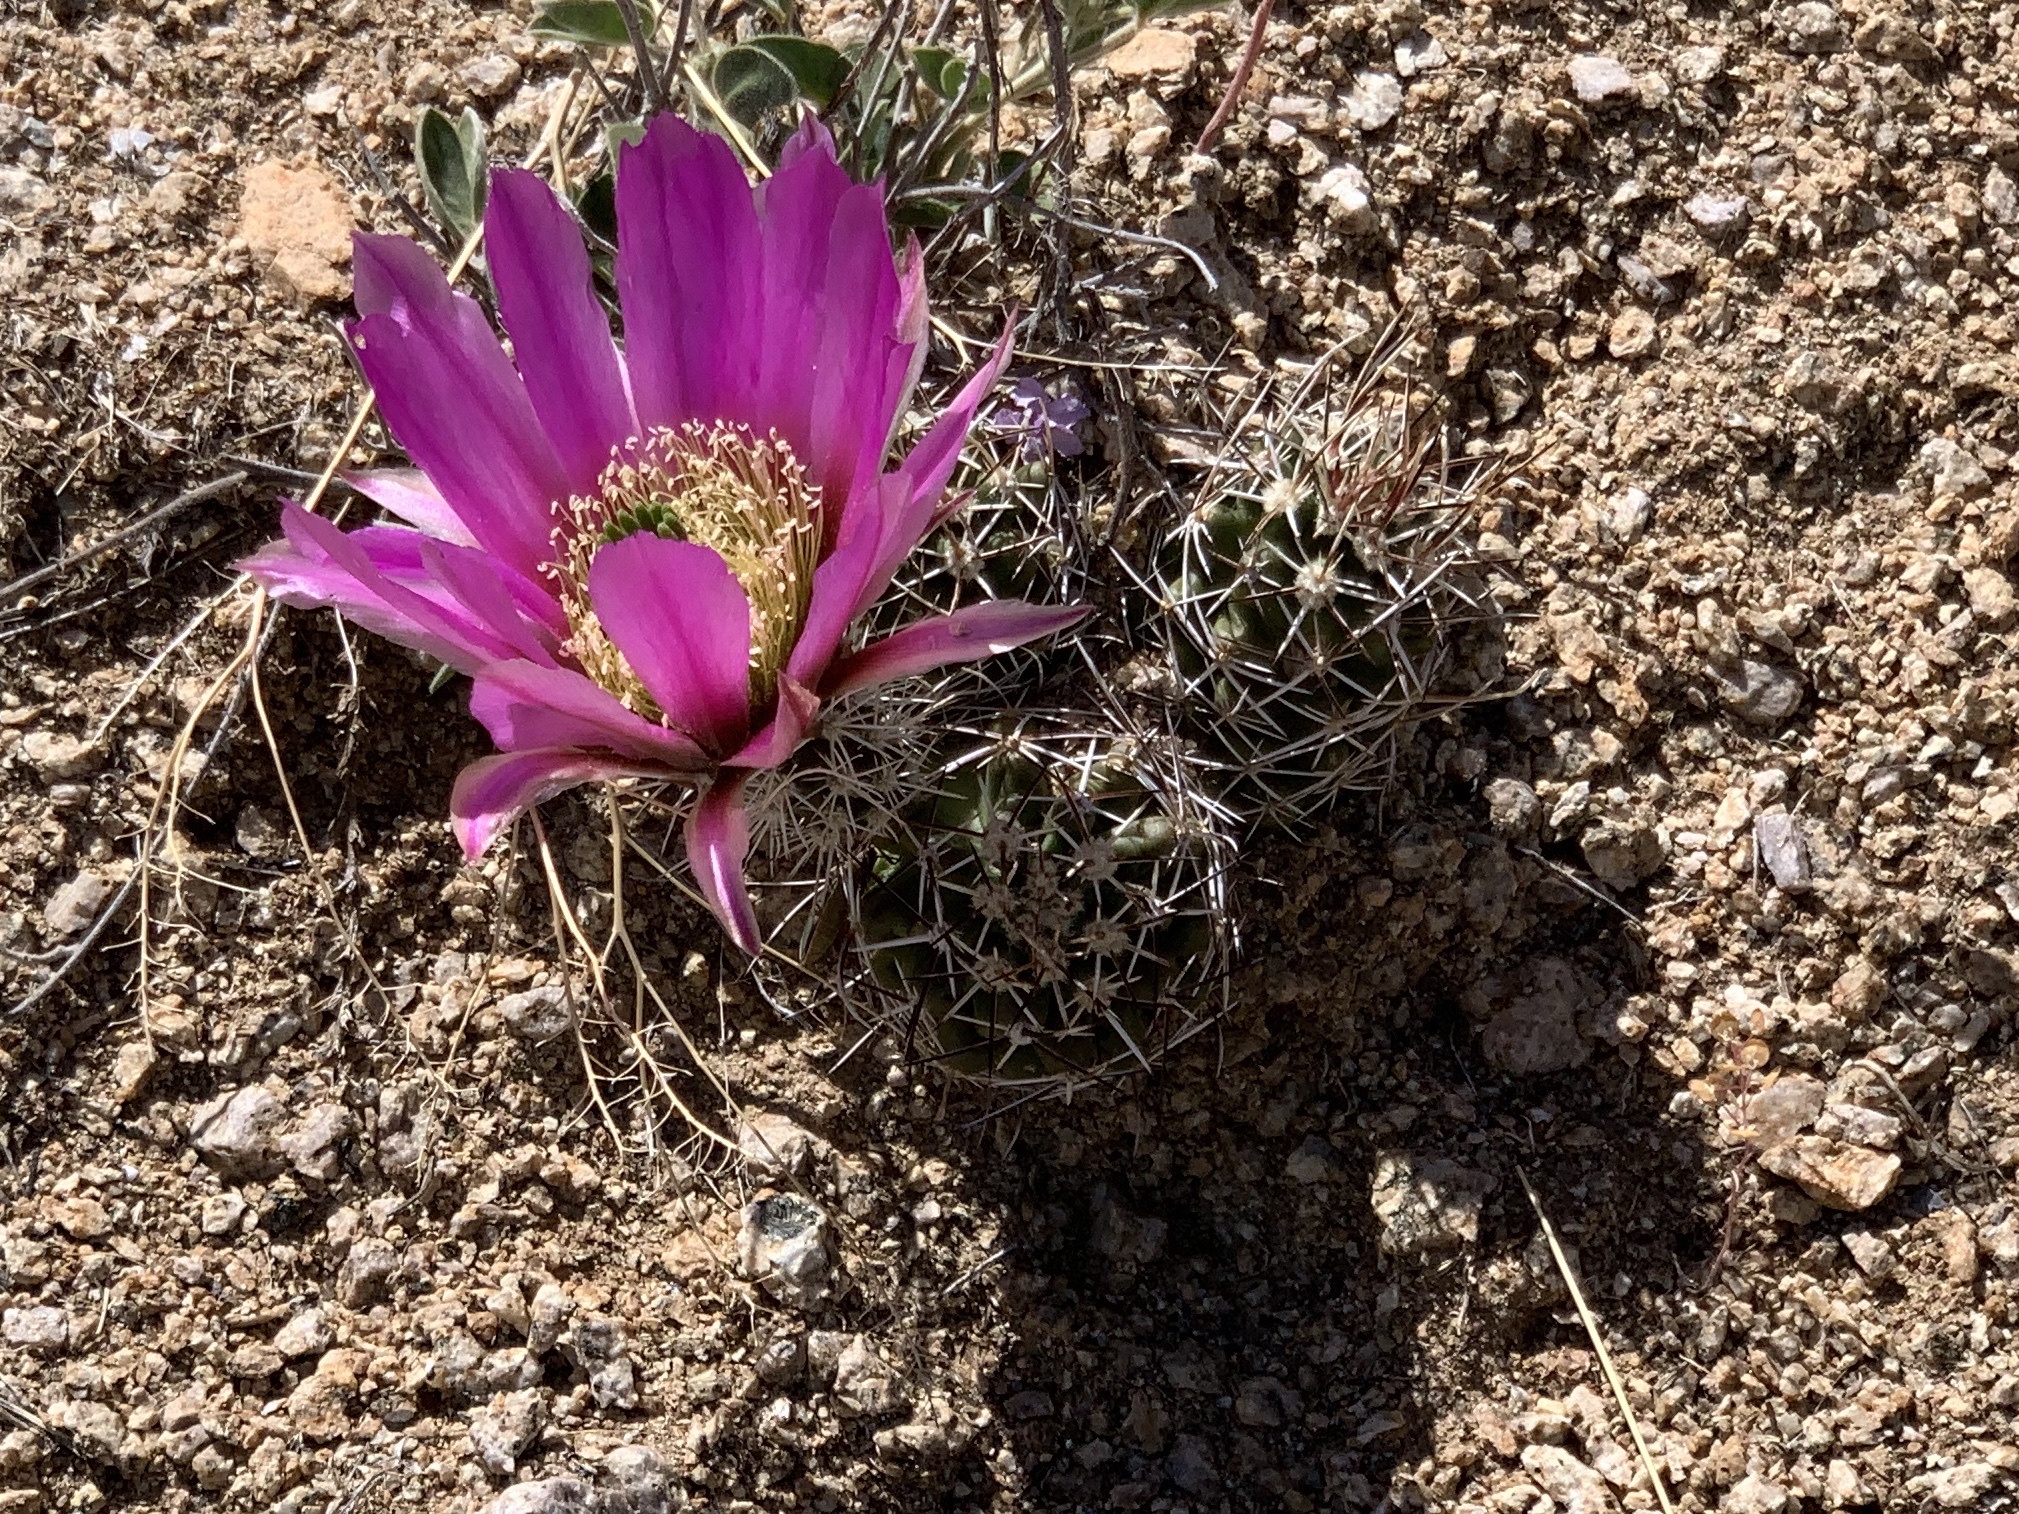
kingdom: Plantae
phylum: Tracheophyta
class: Magnoliopsida
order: Caryophyllales
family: Cactaceae
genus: Echinocereus
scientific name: Echinocereus fendleri
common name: Fendler's hedgehog cactus
